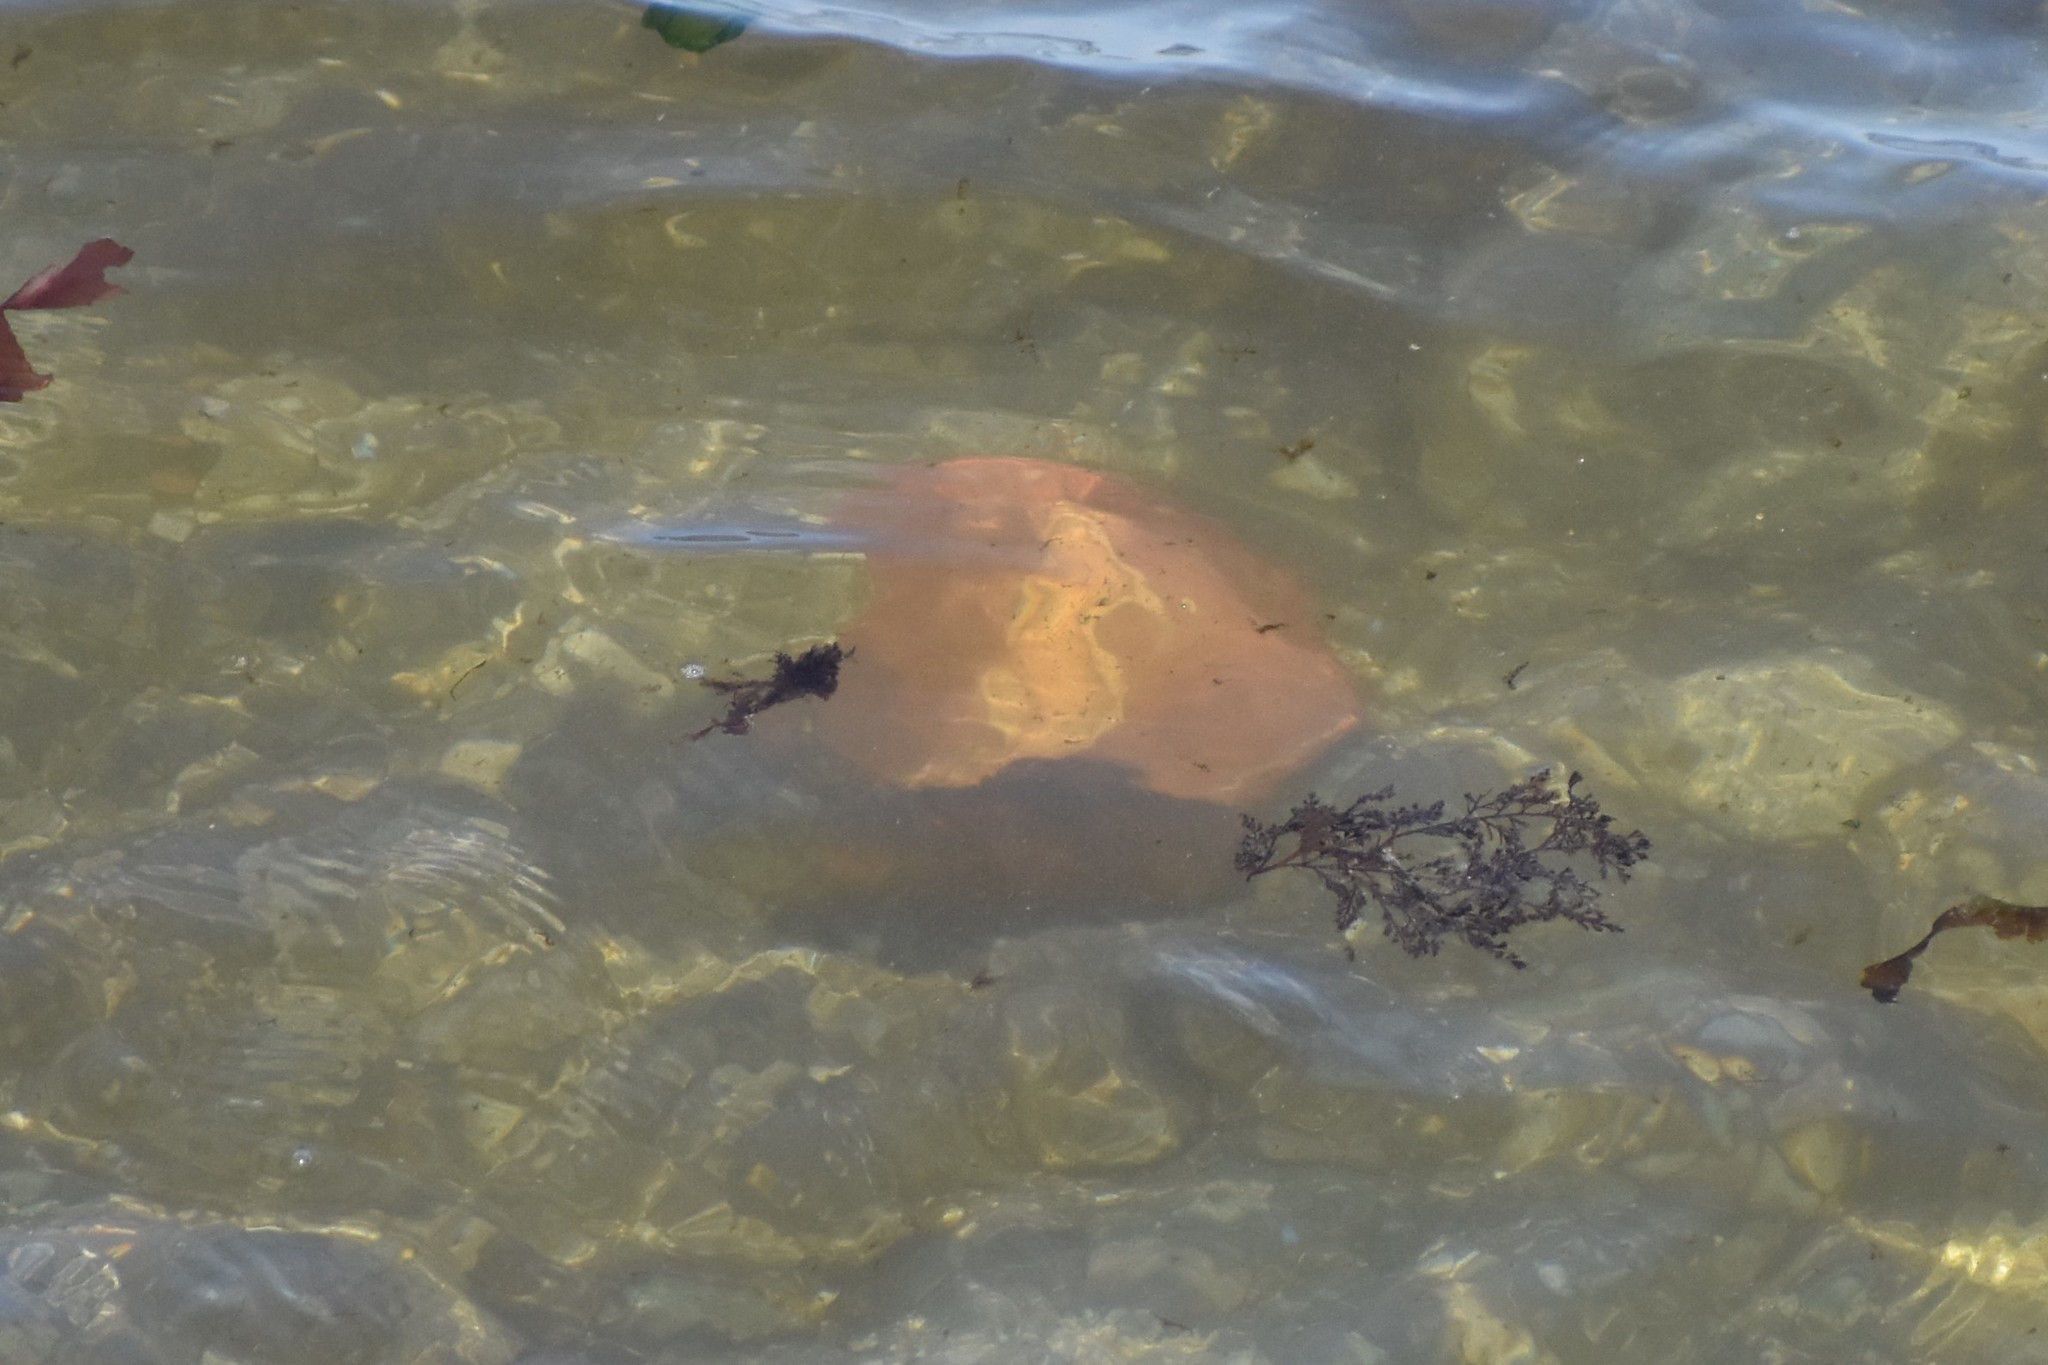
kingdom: Animalia
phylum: Mollusca
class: Polyplacophora
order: Chitonida
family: Acanthochitonidae
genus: Cryptochiton
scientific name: Cryptochiton stelleri
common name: Giant pacific chiton
